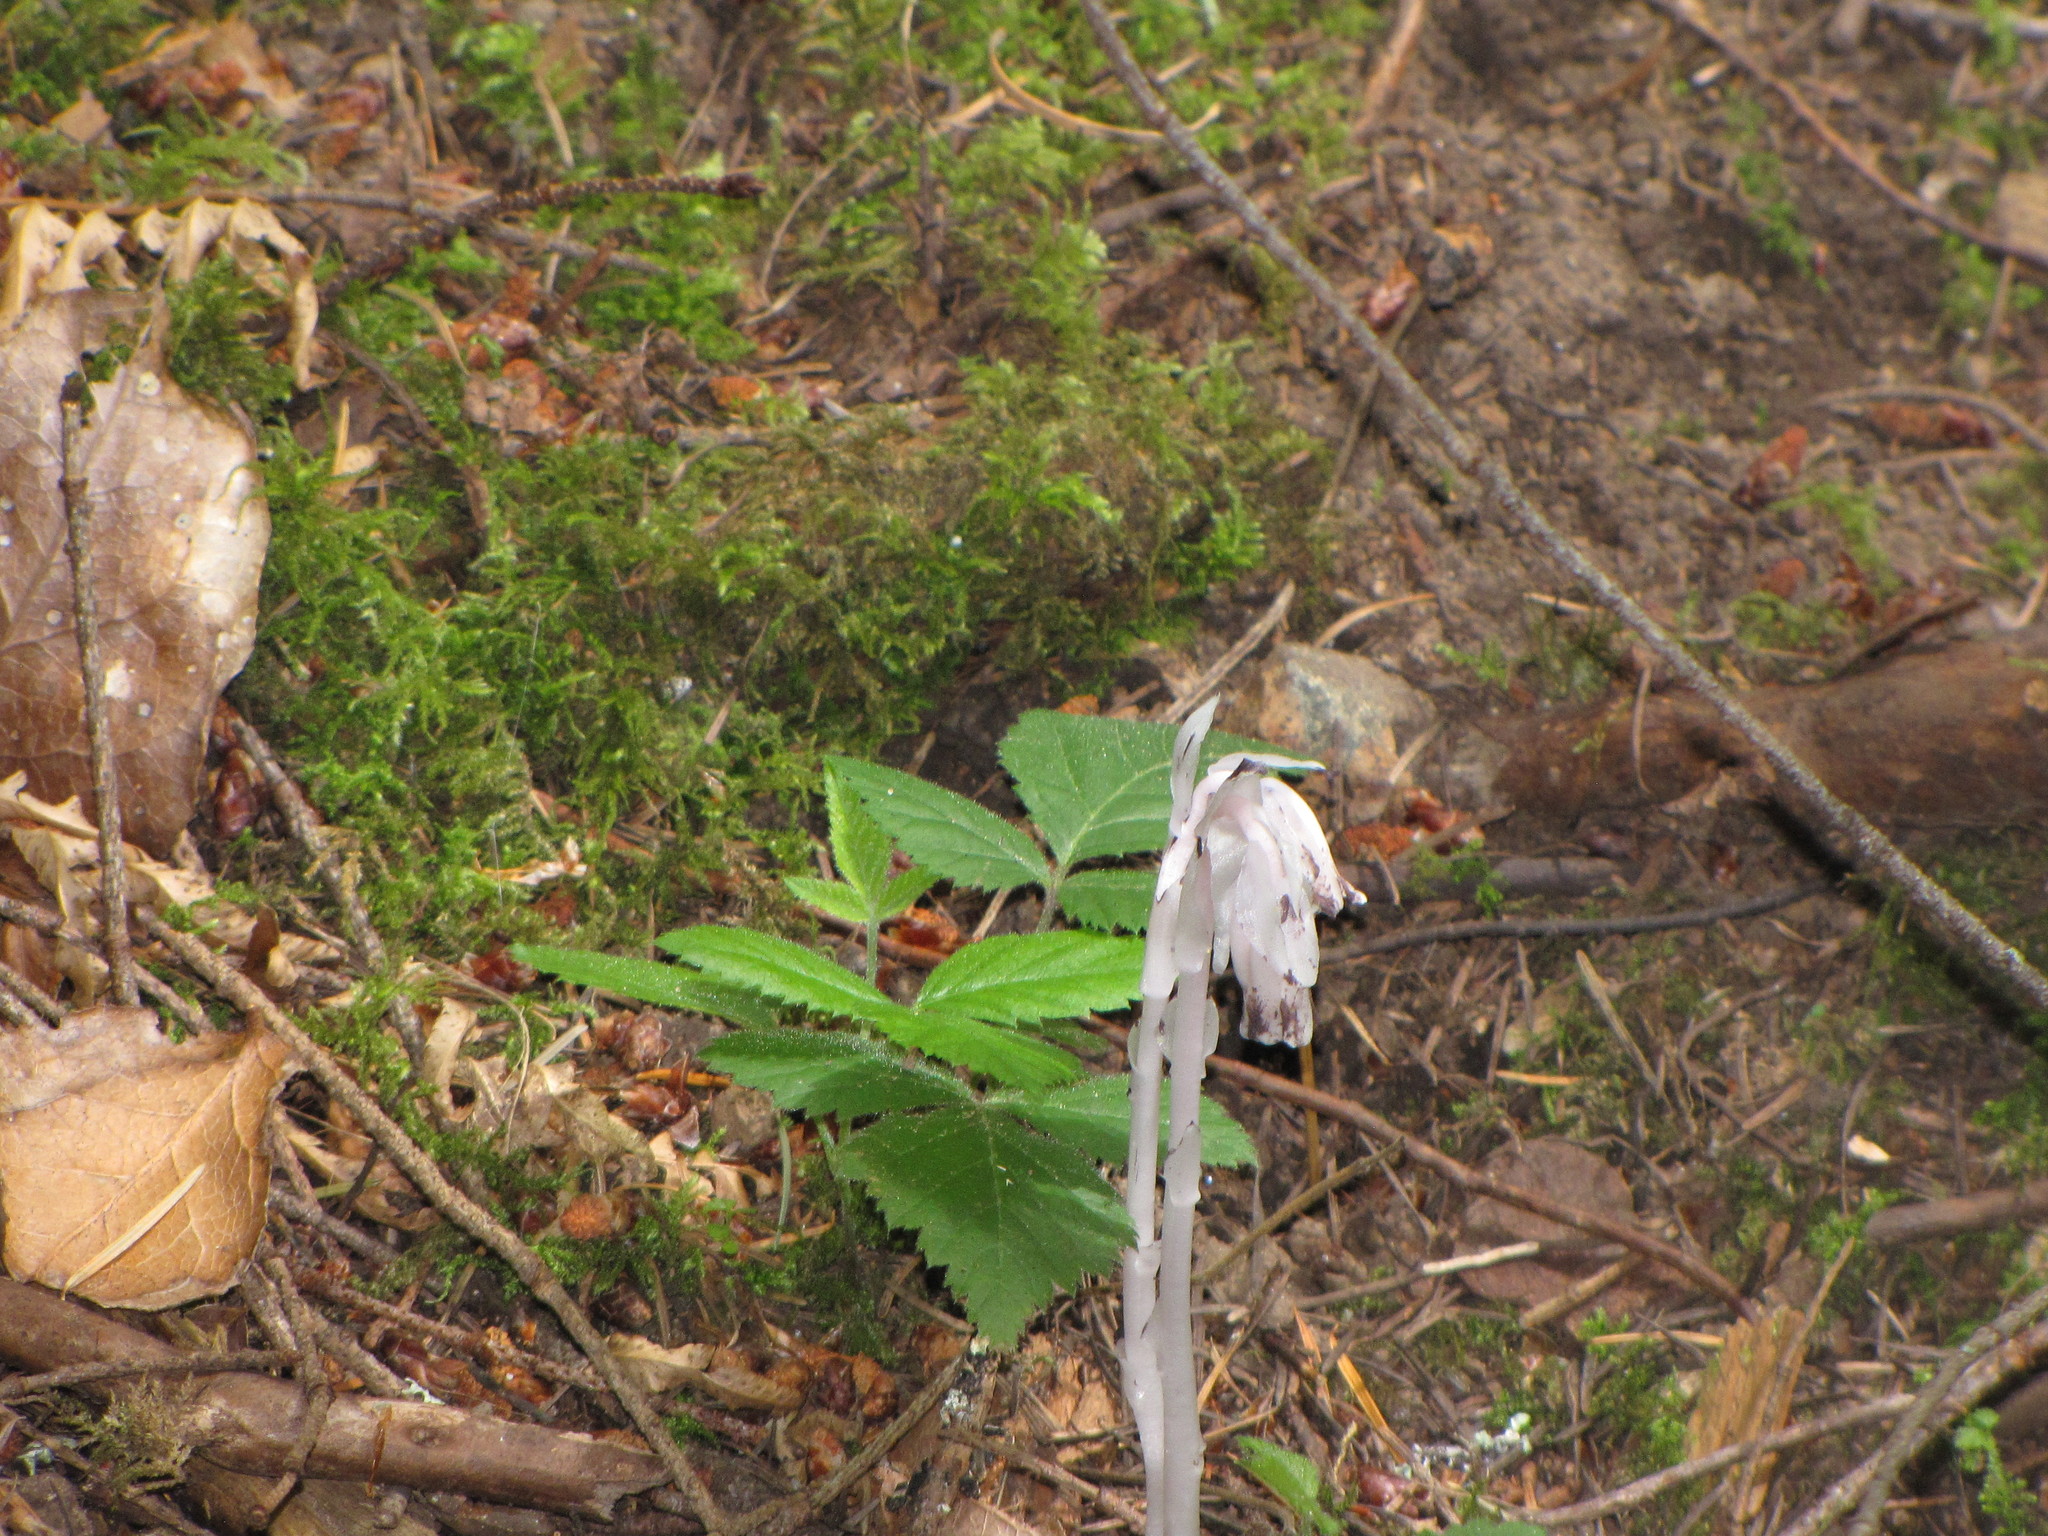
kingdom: Plantae
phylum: Tracheophyta
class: Magnoliopsida
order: Ericales
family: Ericaceae
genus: Monotropa
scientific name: Monotropa uniflora
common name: Convulsion root
